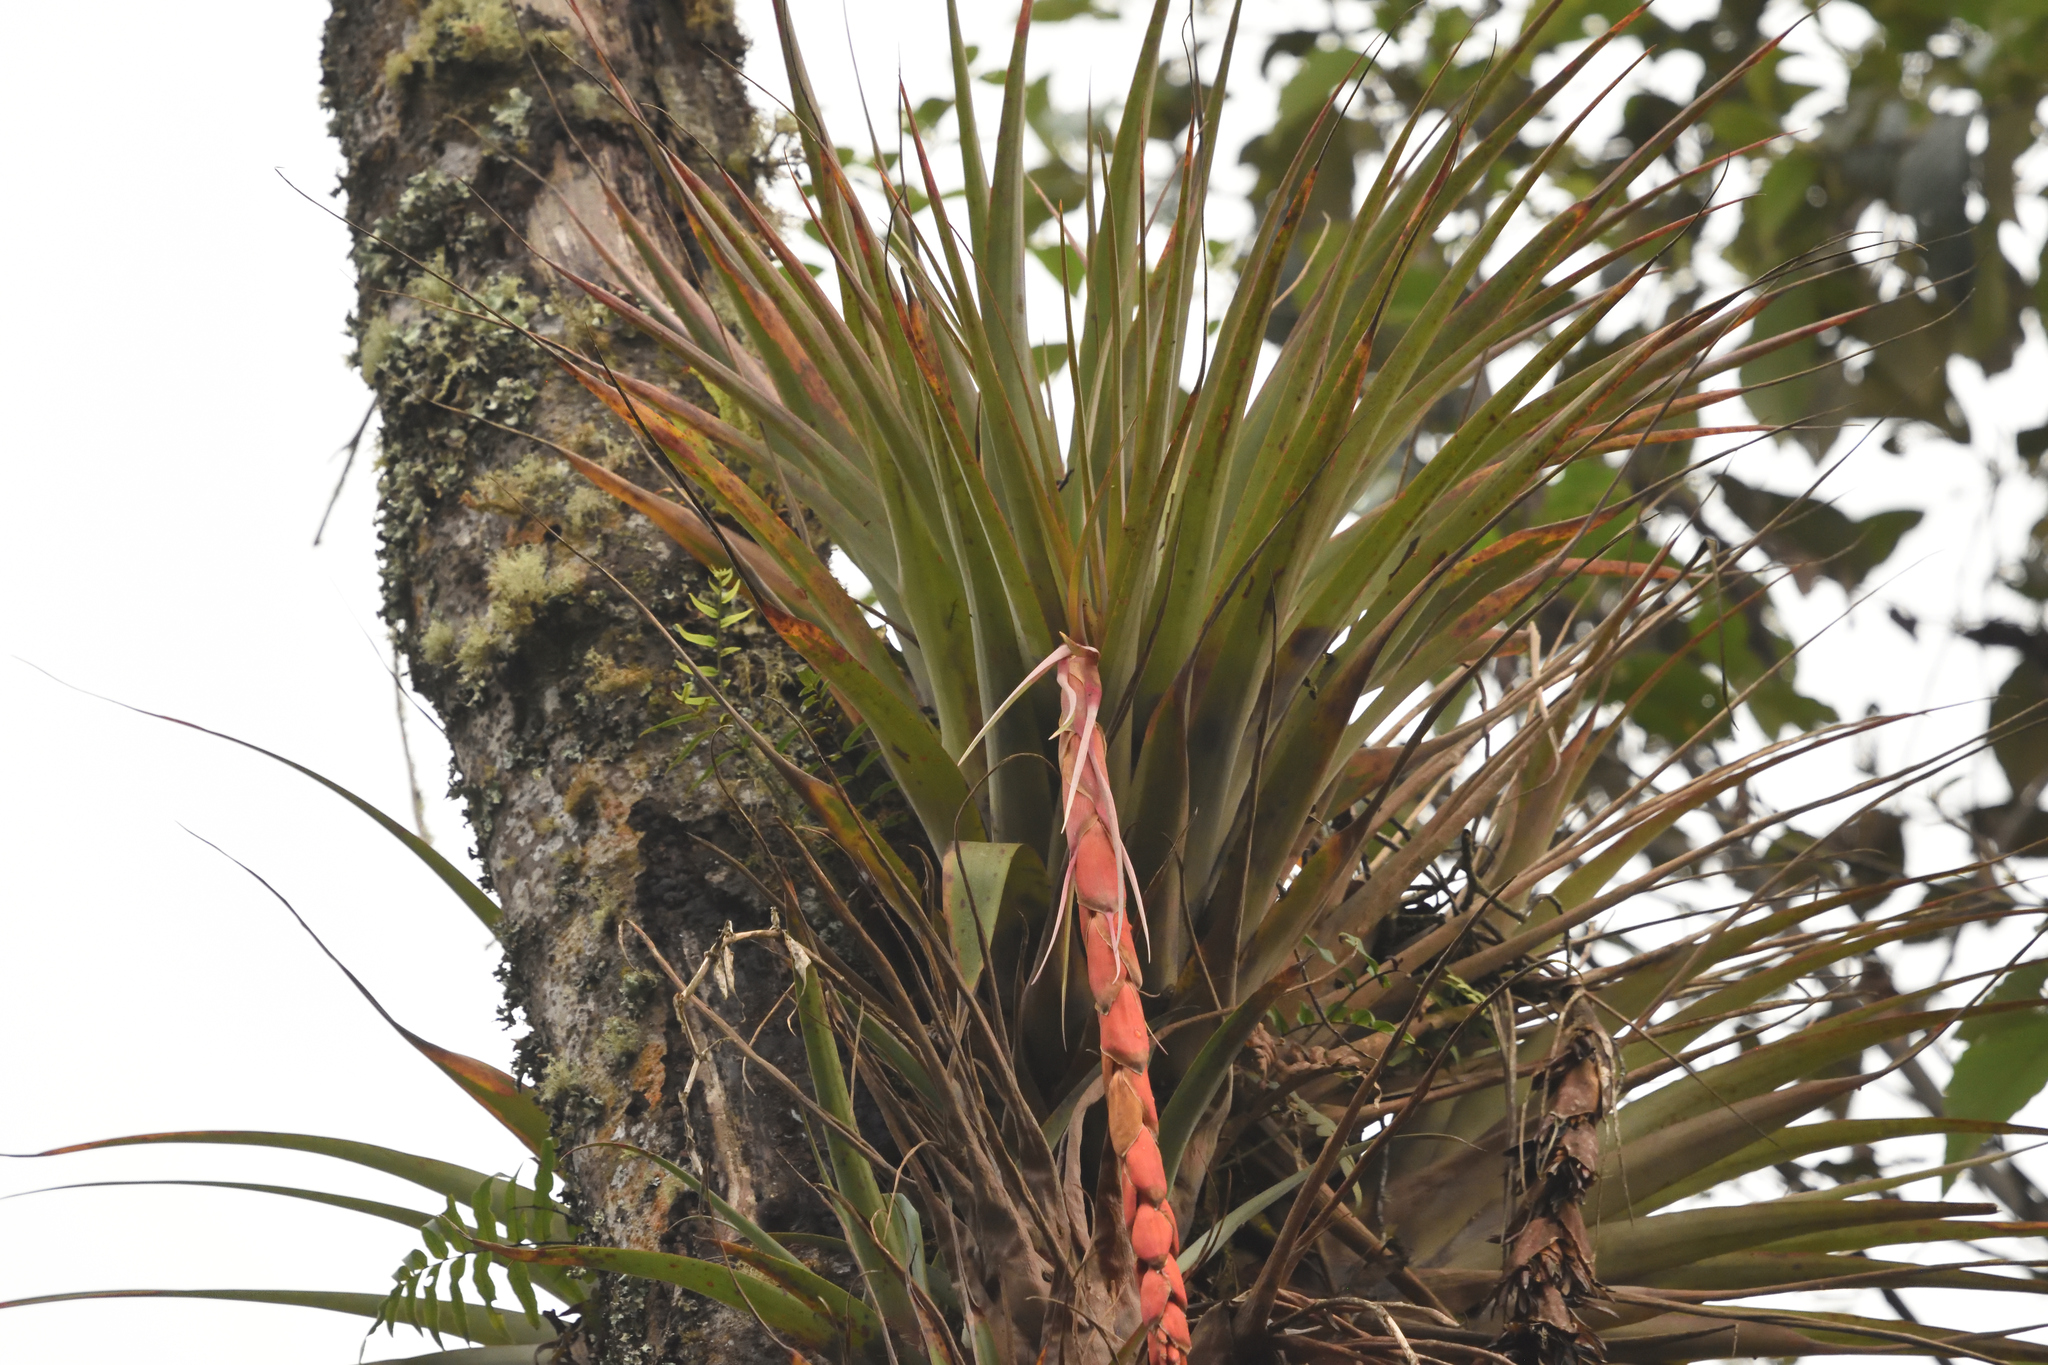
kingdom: Plantae
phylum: Tracheophyta
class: Liliopsida
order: Poales
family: Bromeliaceae
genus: Vriesea
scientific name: Vriesea tequendamae
